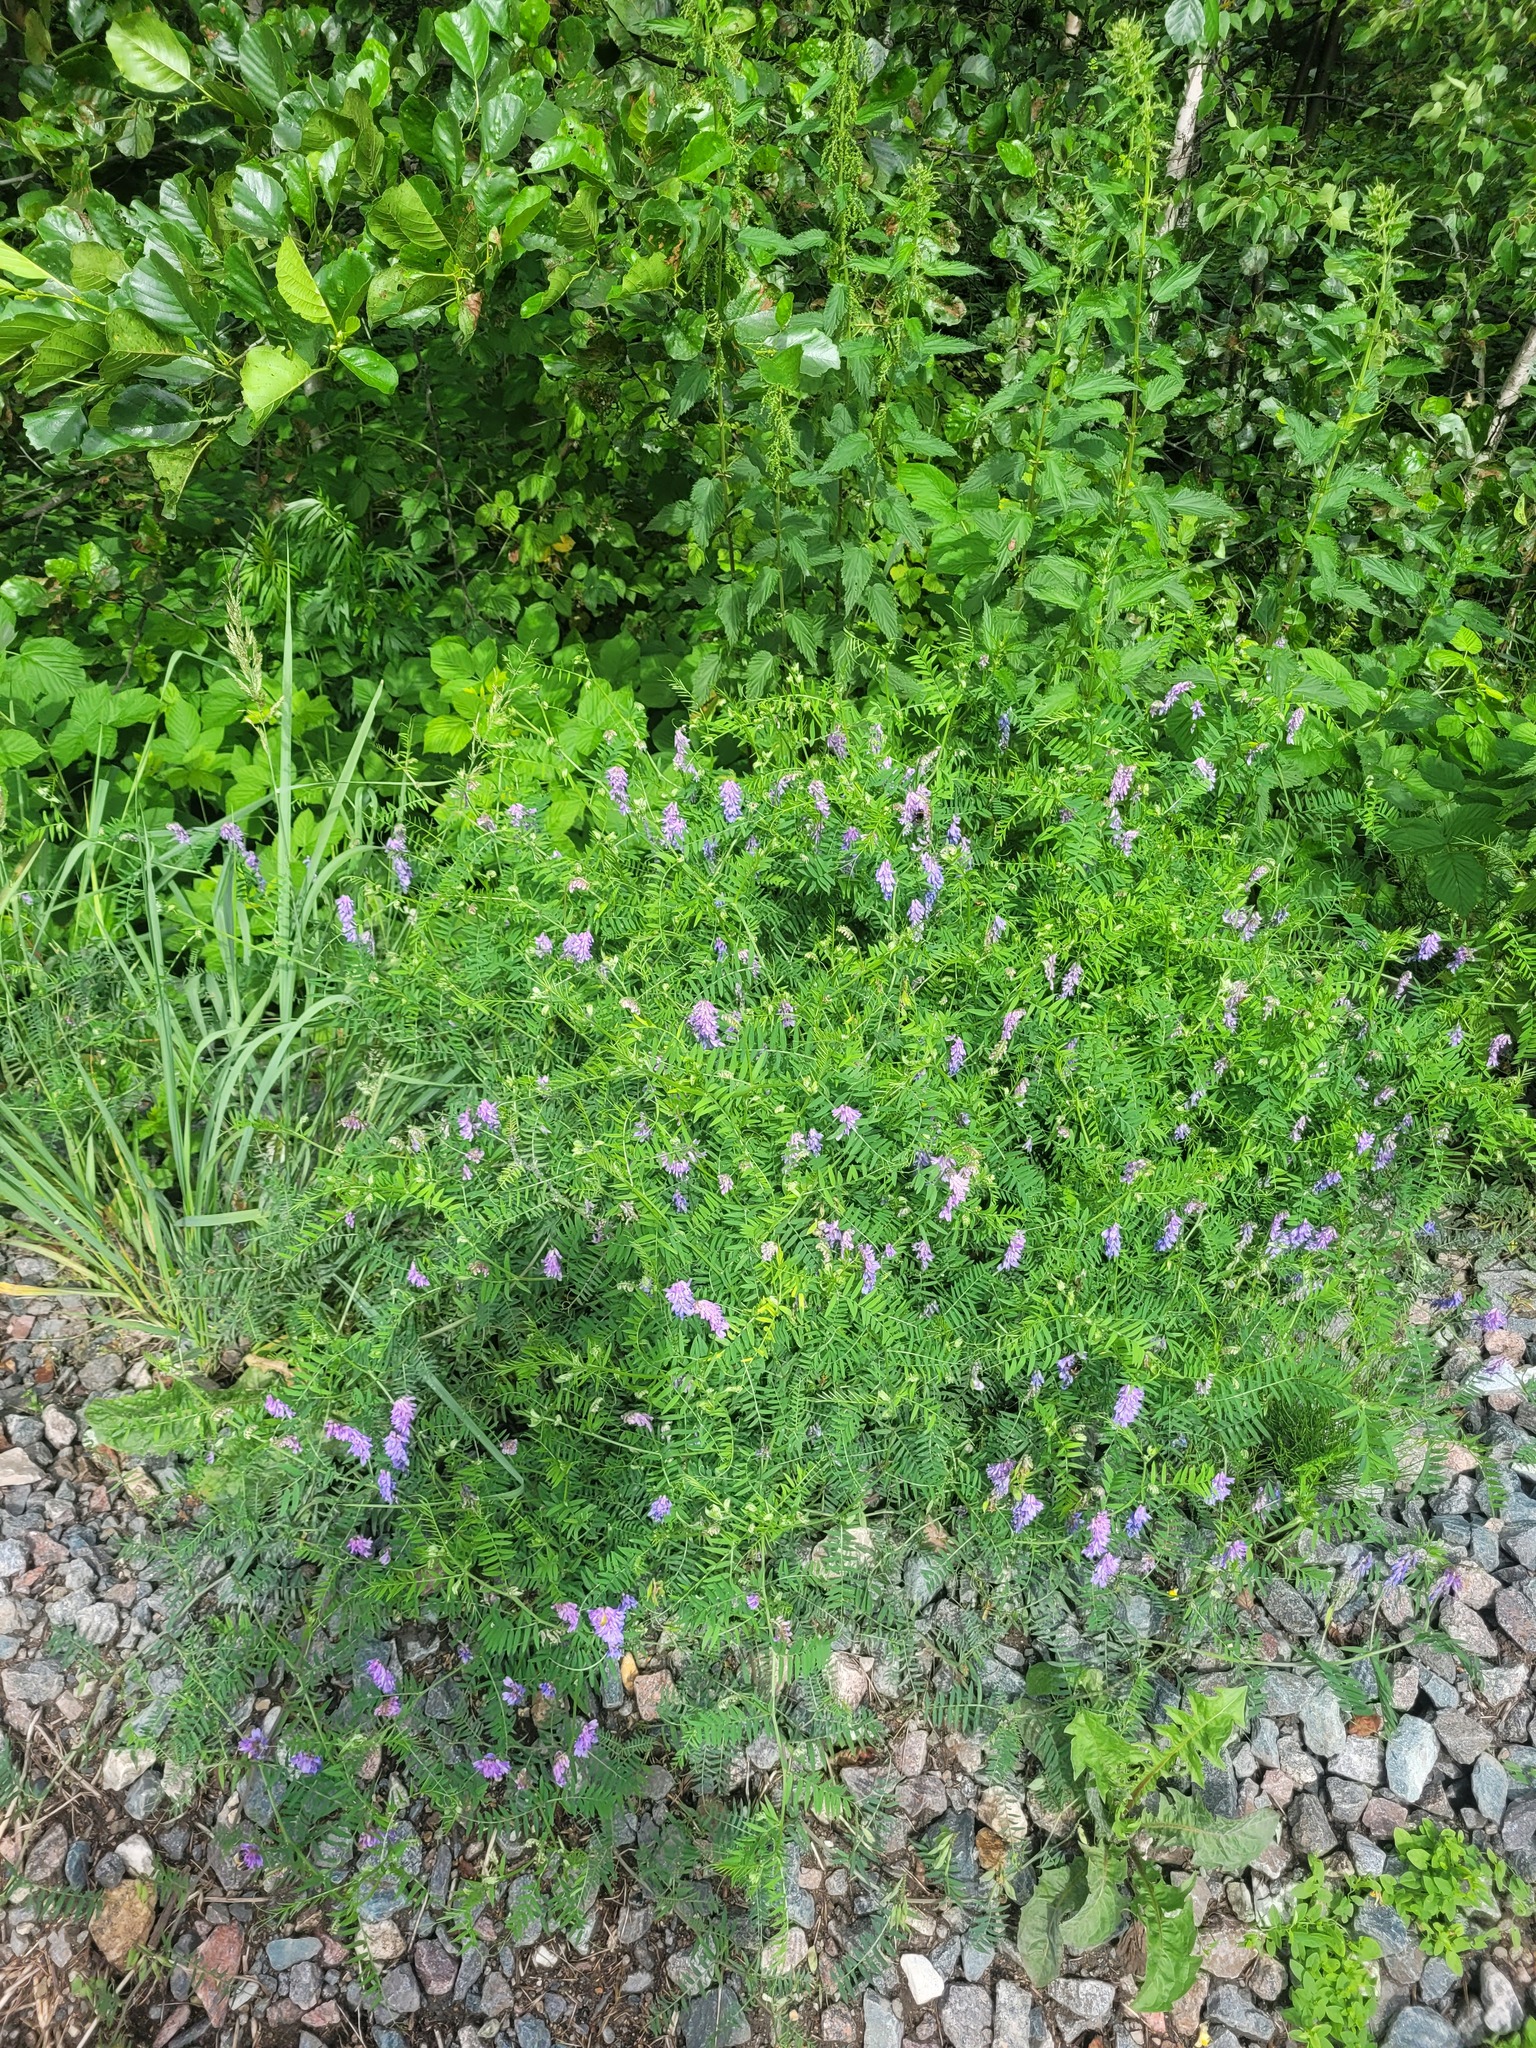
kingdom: Plantae
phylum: Tracheophyta
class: Magnoliopsida
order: Fabales
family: Fabaceae
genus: Vicia
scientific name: Vicia cracca
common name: Bird vetch
